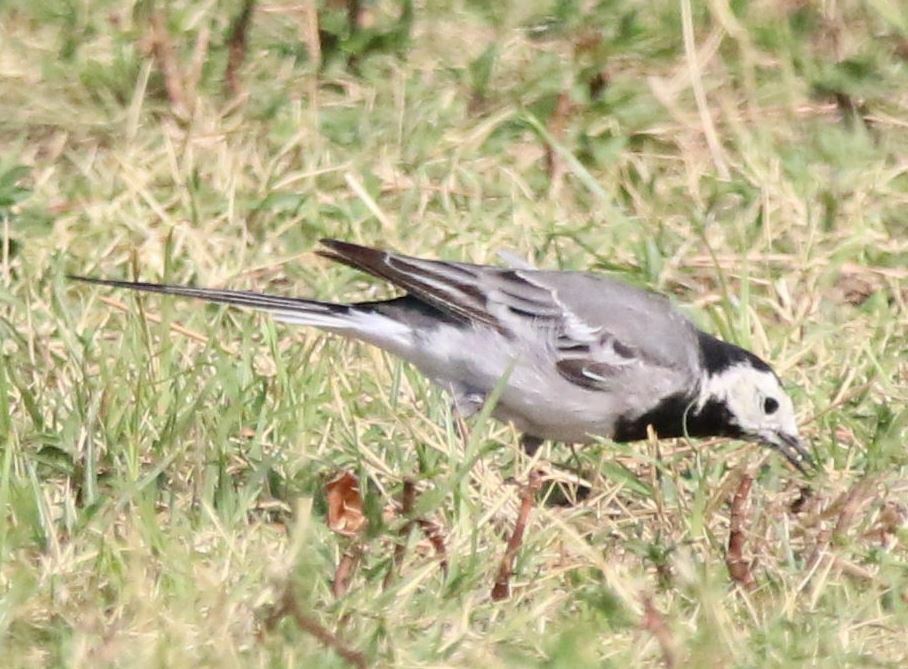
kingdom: Animalia
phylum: Chordata
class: Aves
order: Passeriformes
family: Motacillidae
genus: Motacilla
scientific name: Motacilla alba
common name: White wagtail
